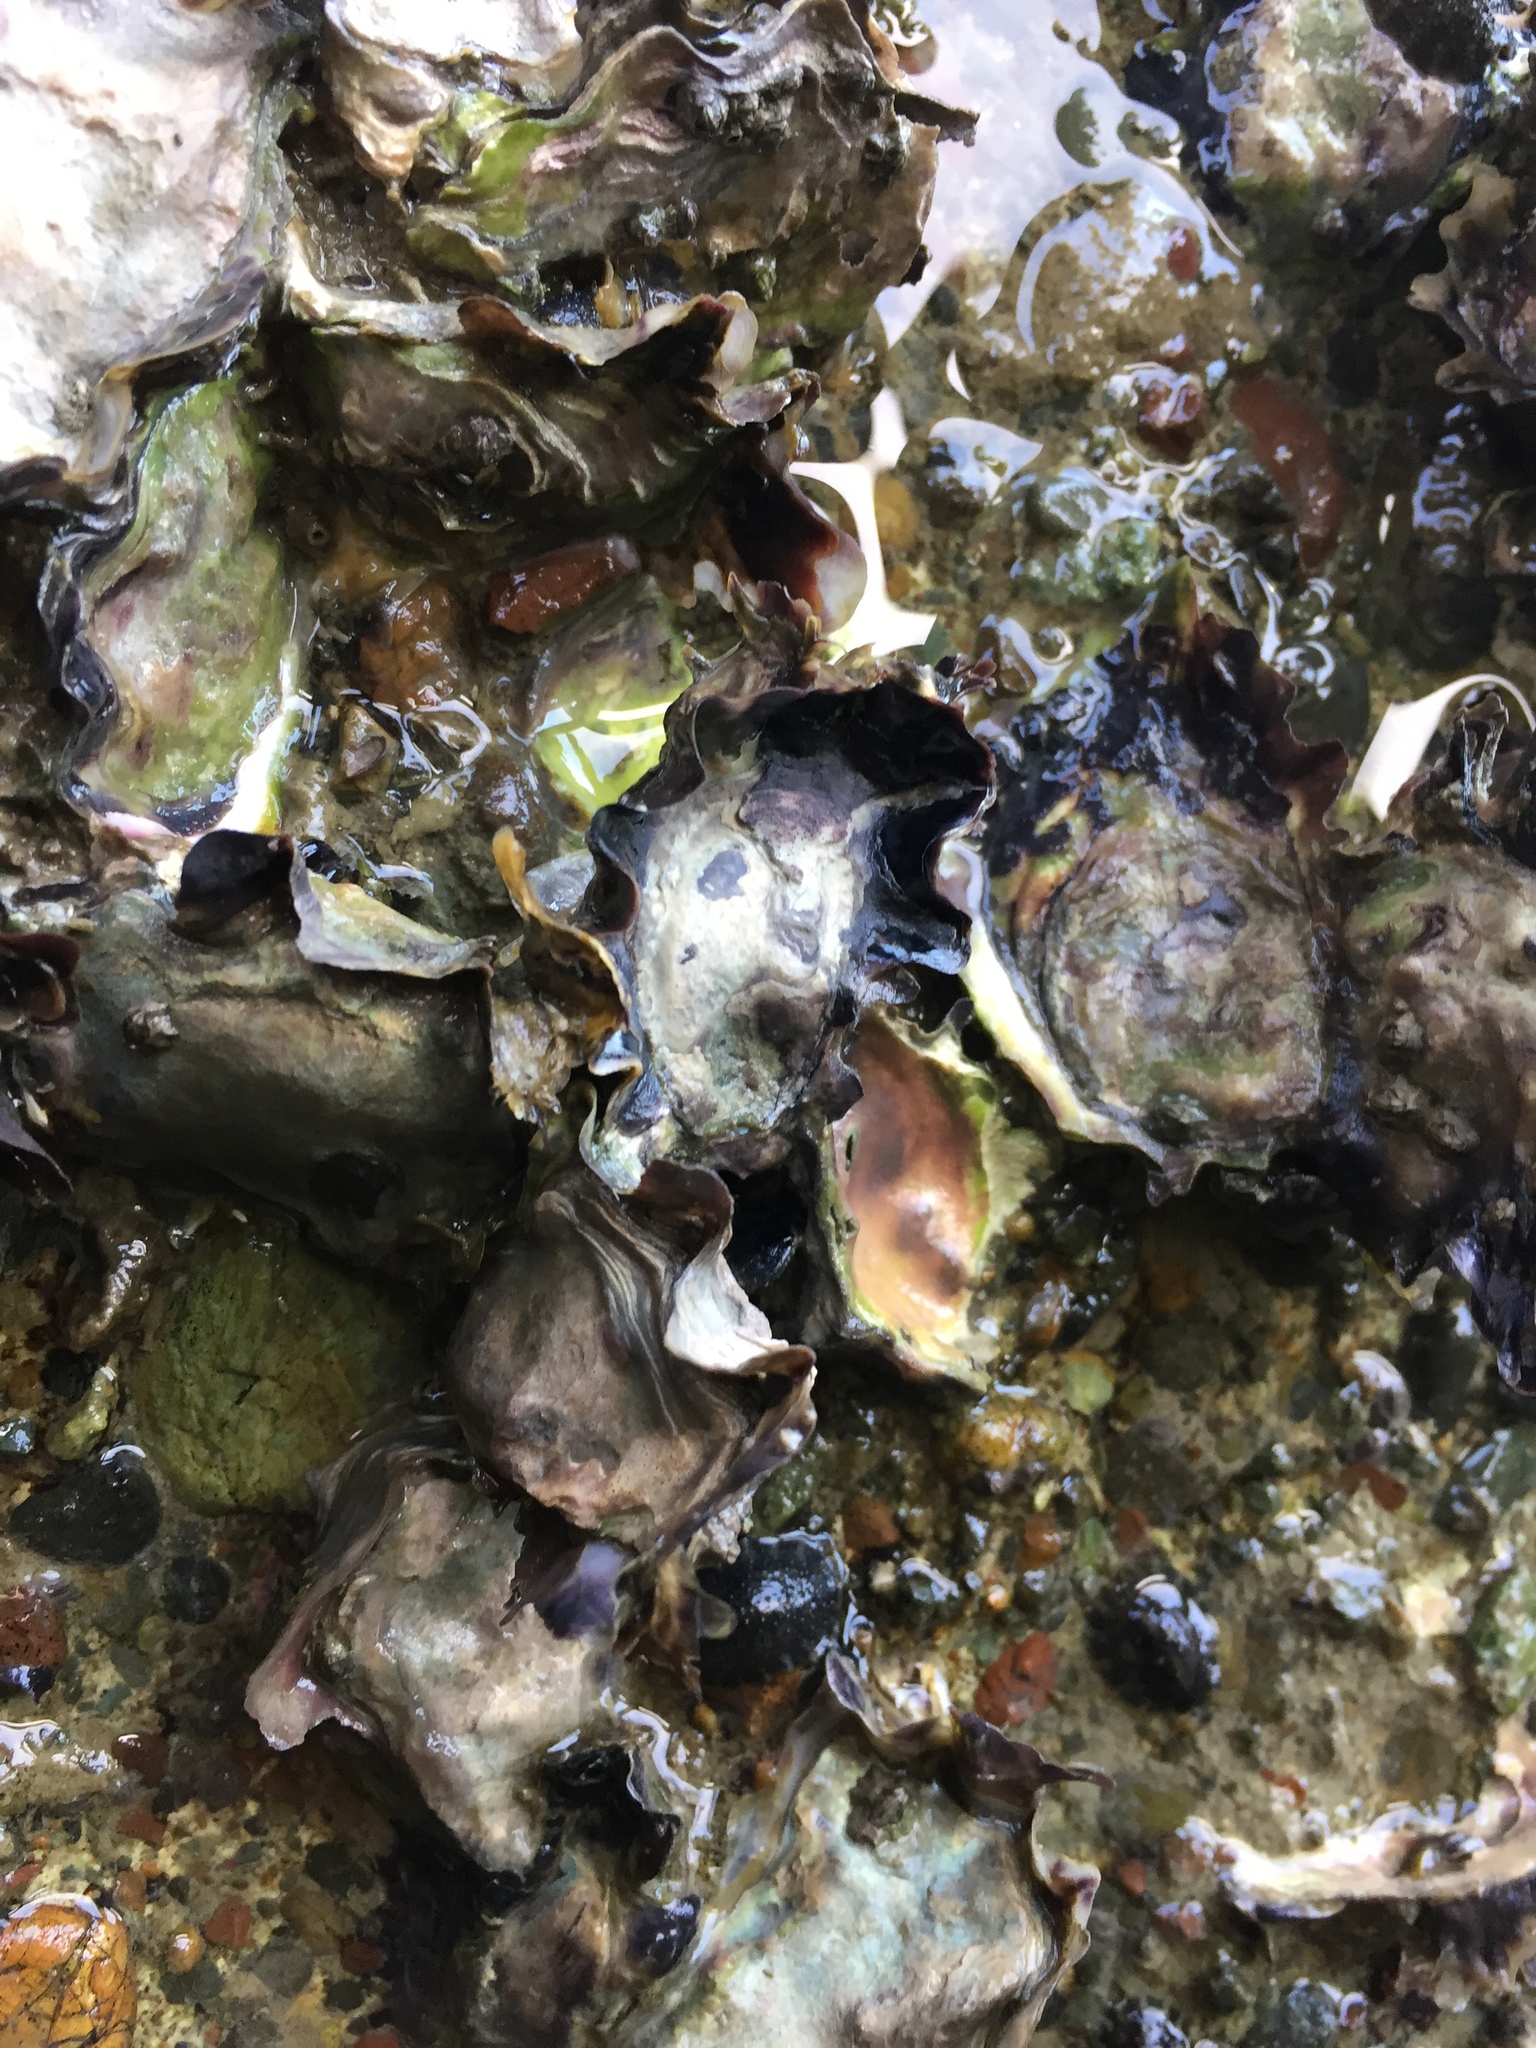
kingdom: Animalia
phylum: Mollusca
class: Bivalvia
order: Ostreida
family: Ostreidae
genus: Saccostrea
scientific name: Saccostrea glomerata
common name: Sydney cupped oyster
